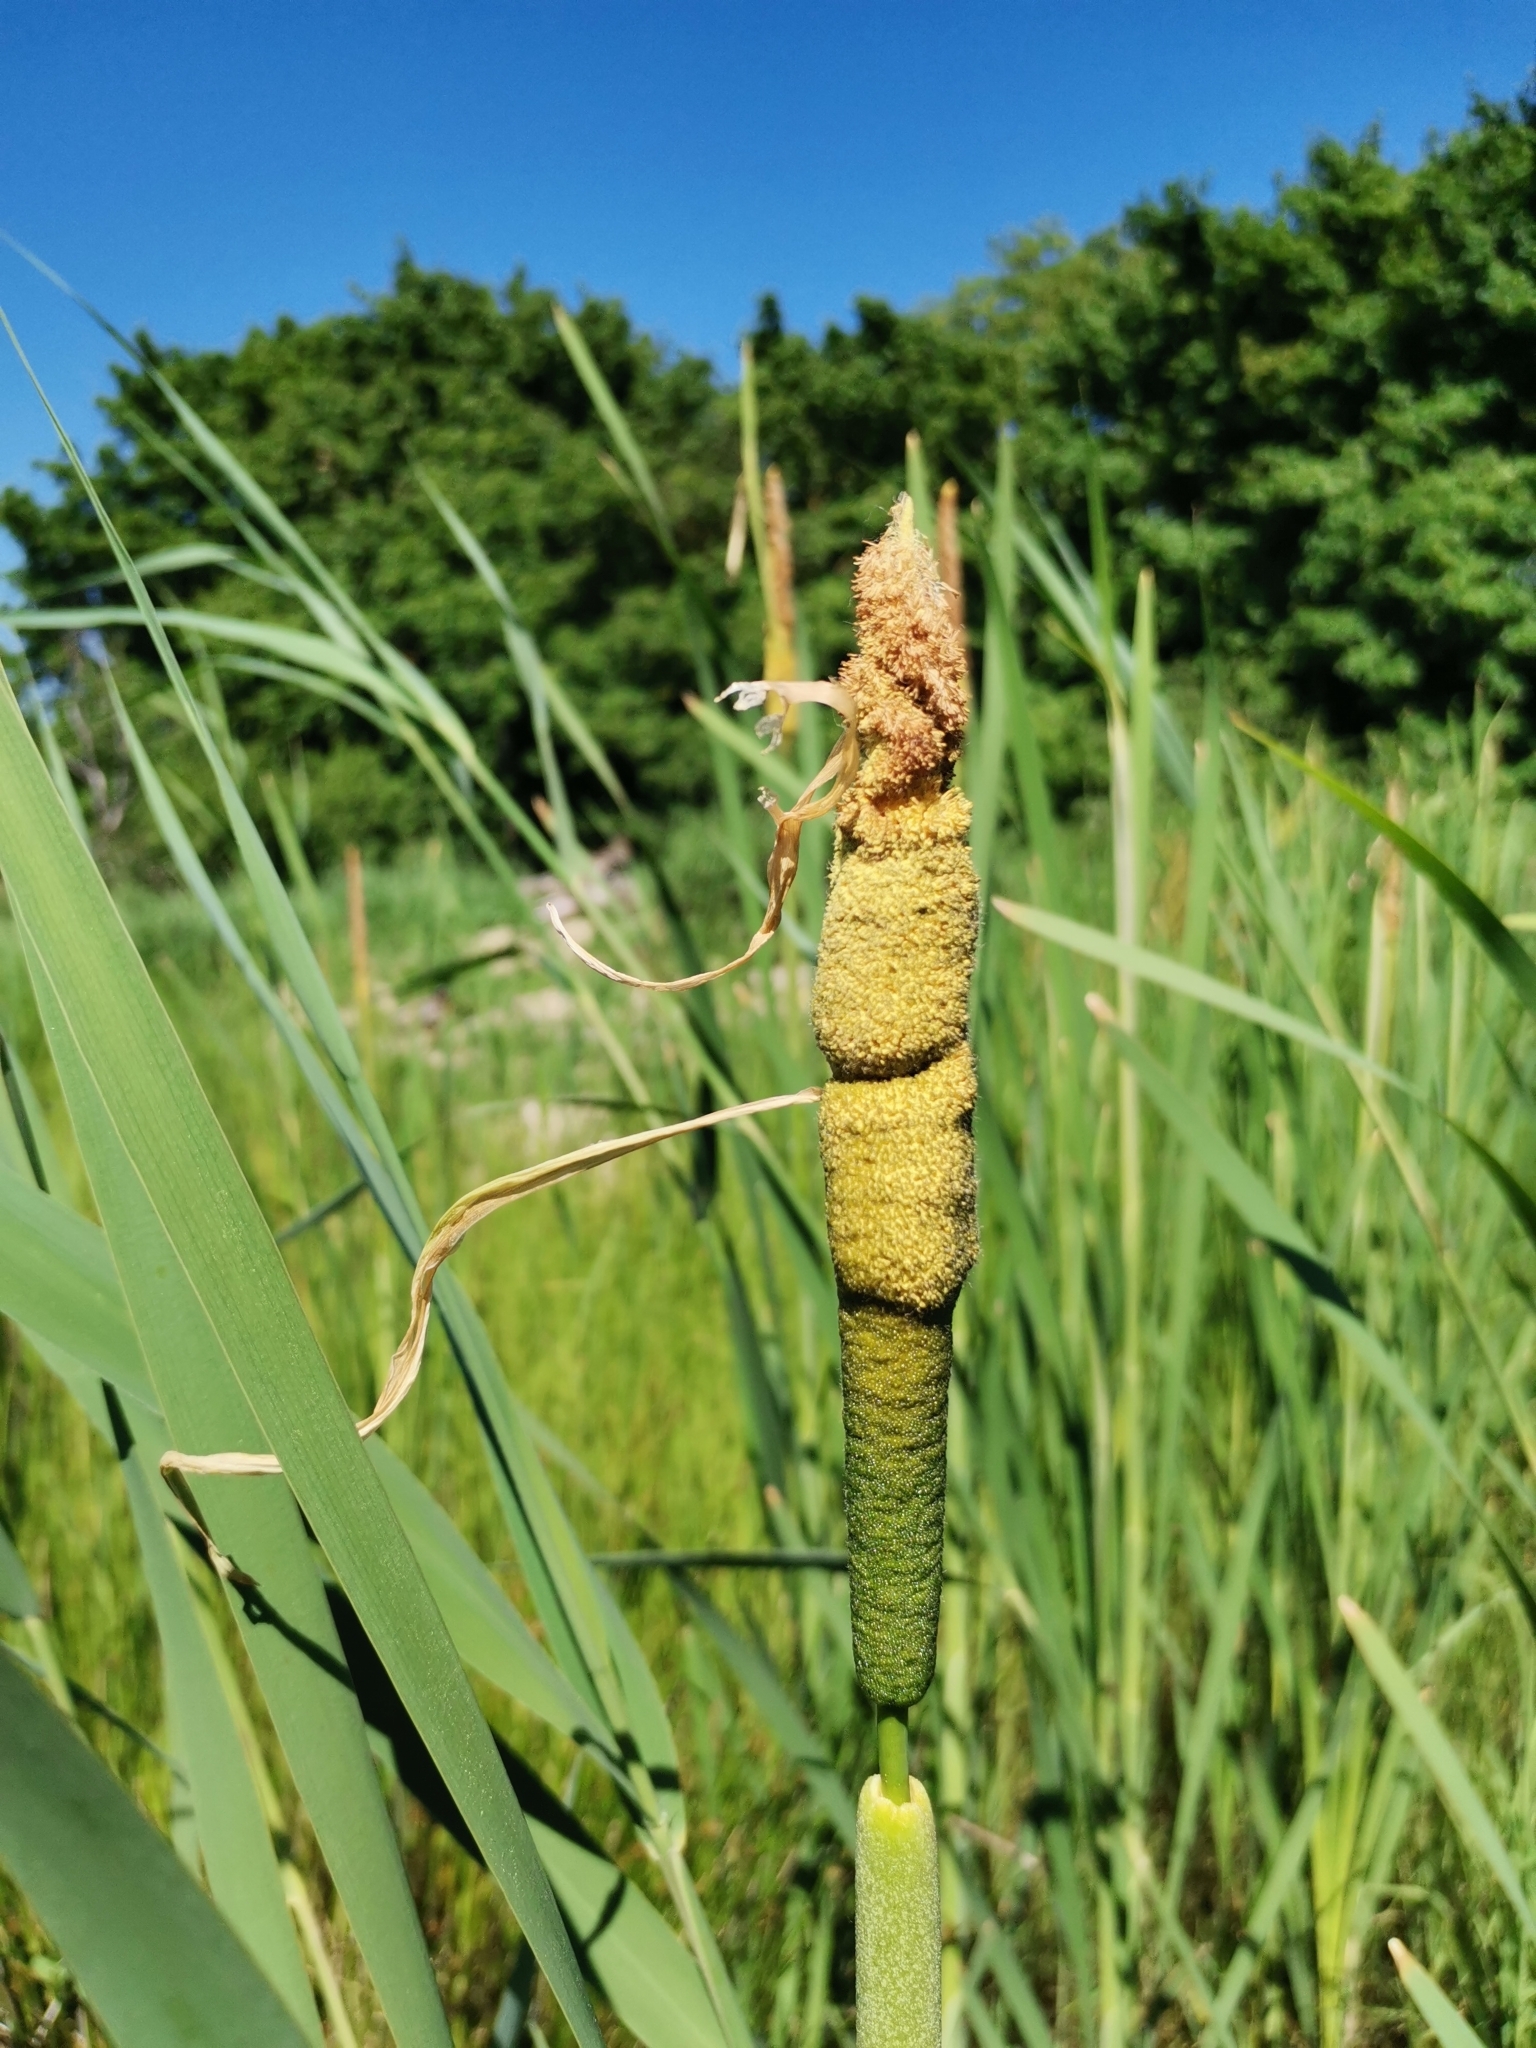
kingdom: Plantae
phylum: Tracheophyta
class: Liliopsida
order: Poales
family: Typhaceae
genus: Typha
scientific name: Typha glauca
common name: Blue cattail
